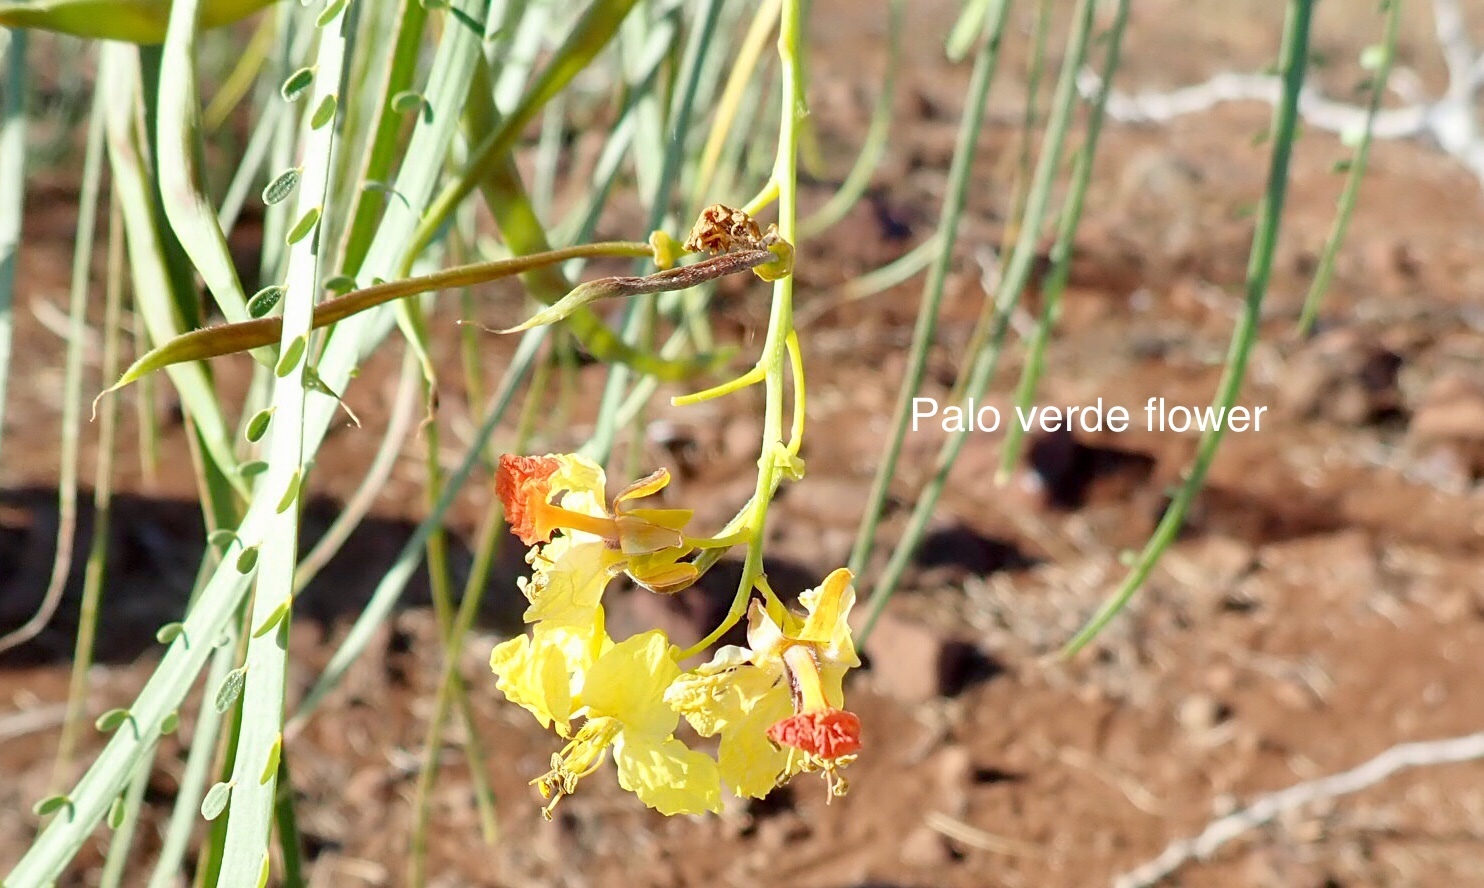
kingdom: Plantae
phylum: Tracheophyta
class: Magnoliopsida
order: Fabales
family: Fabaceae
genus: Parkinsonia
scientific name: Parkinsonia aculeata
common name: Jerusalem thorn
